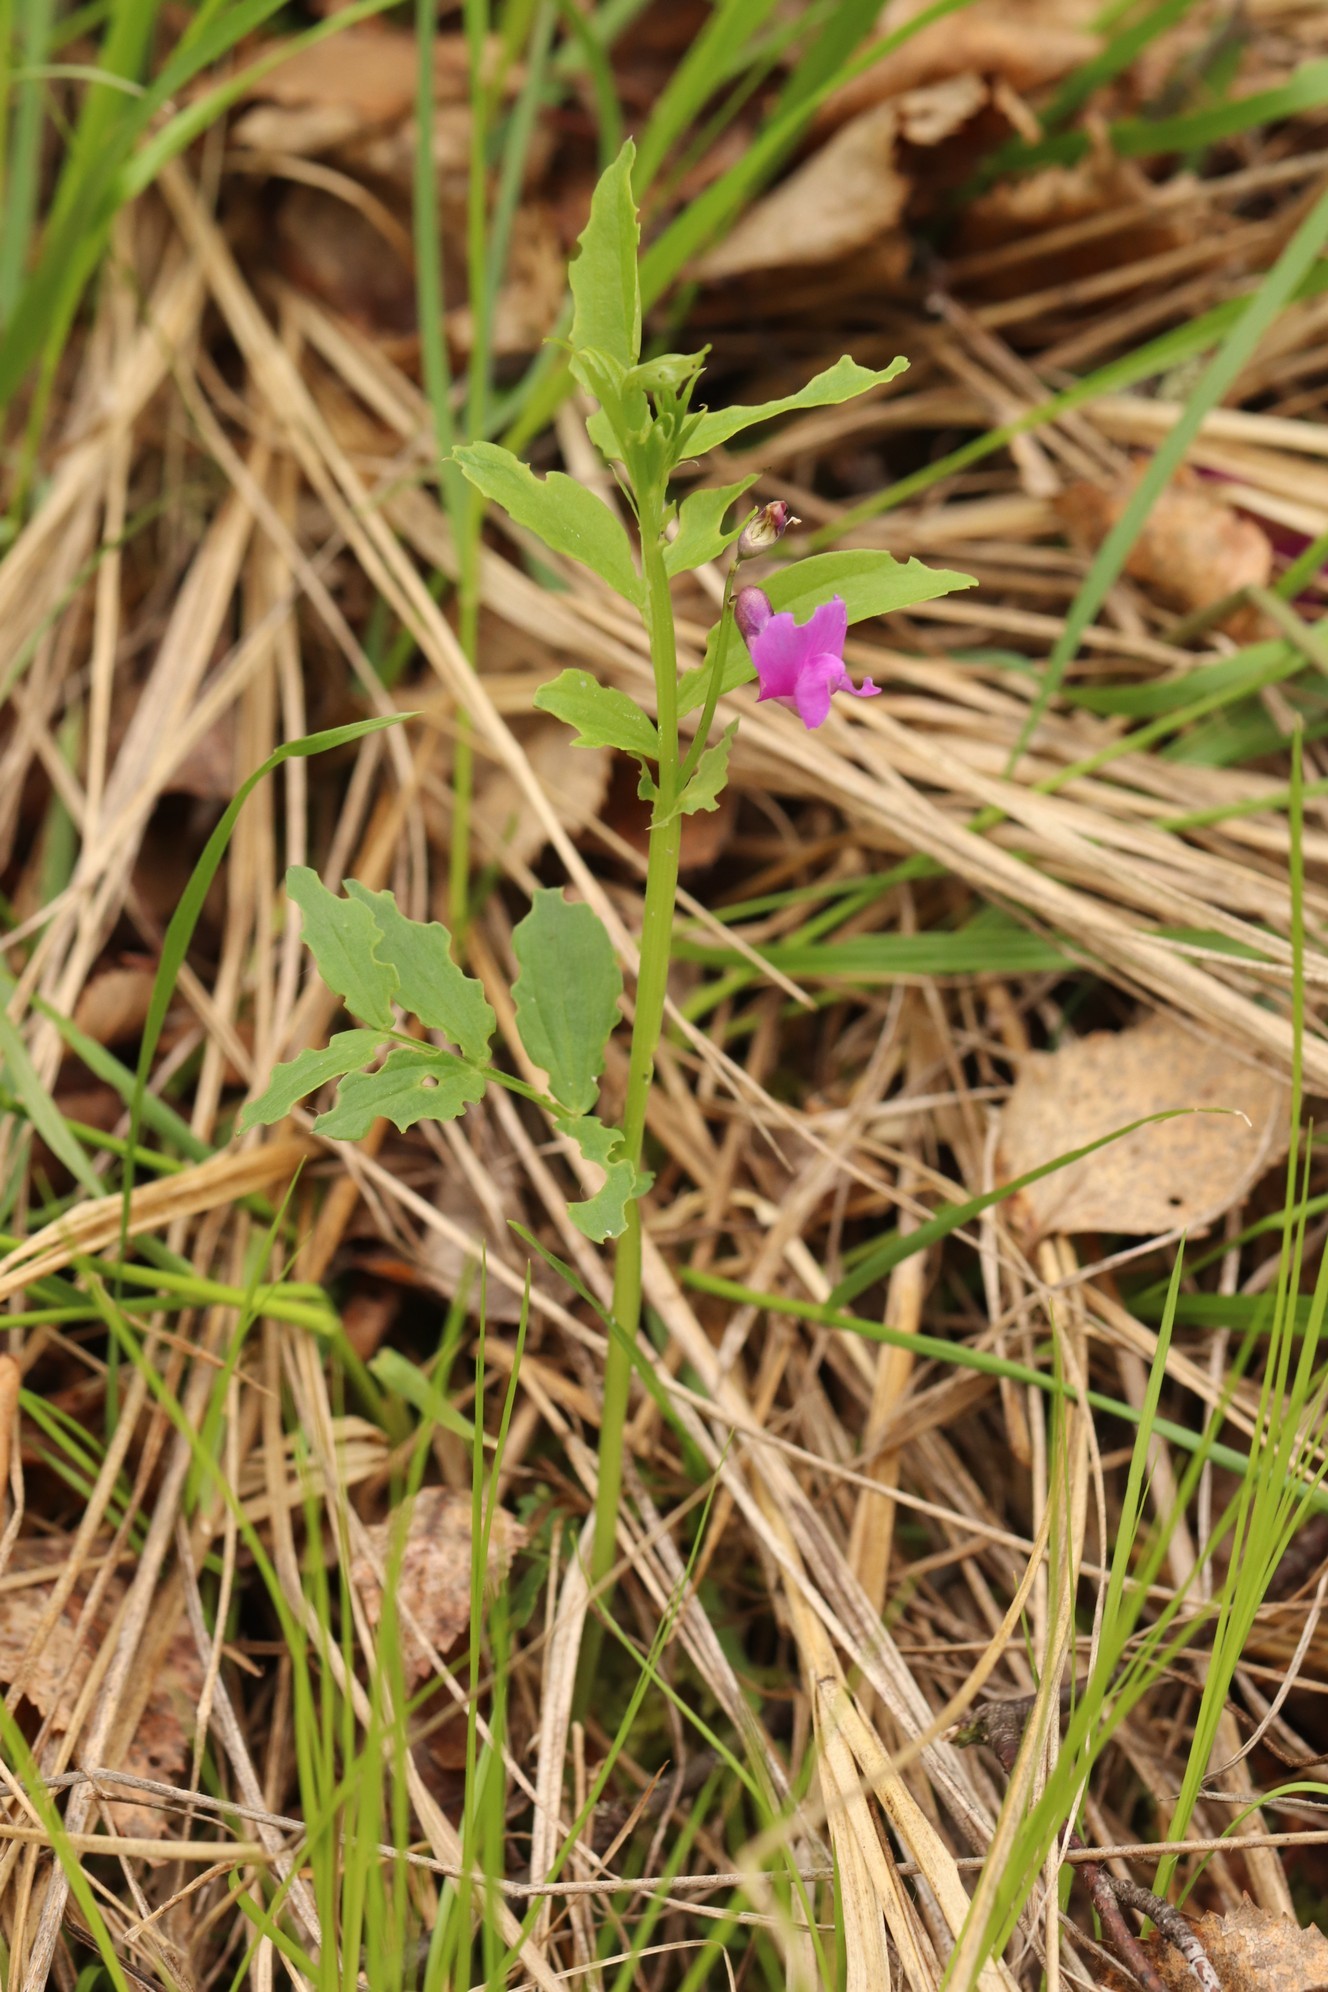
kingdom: Plantae
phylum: Tracheophyta
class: Magnoliopsida
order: Fabales
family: Fabaceae
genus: Lathyrus
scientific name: Lathyrus frolovii
